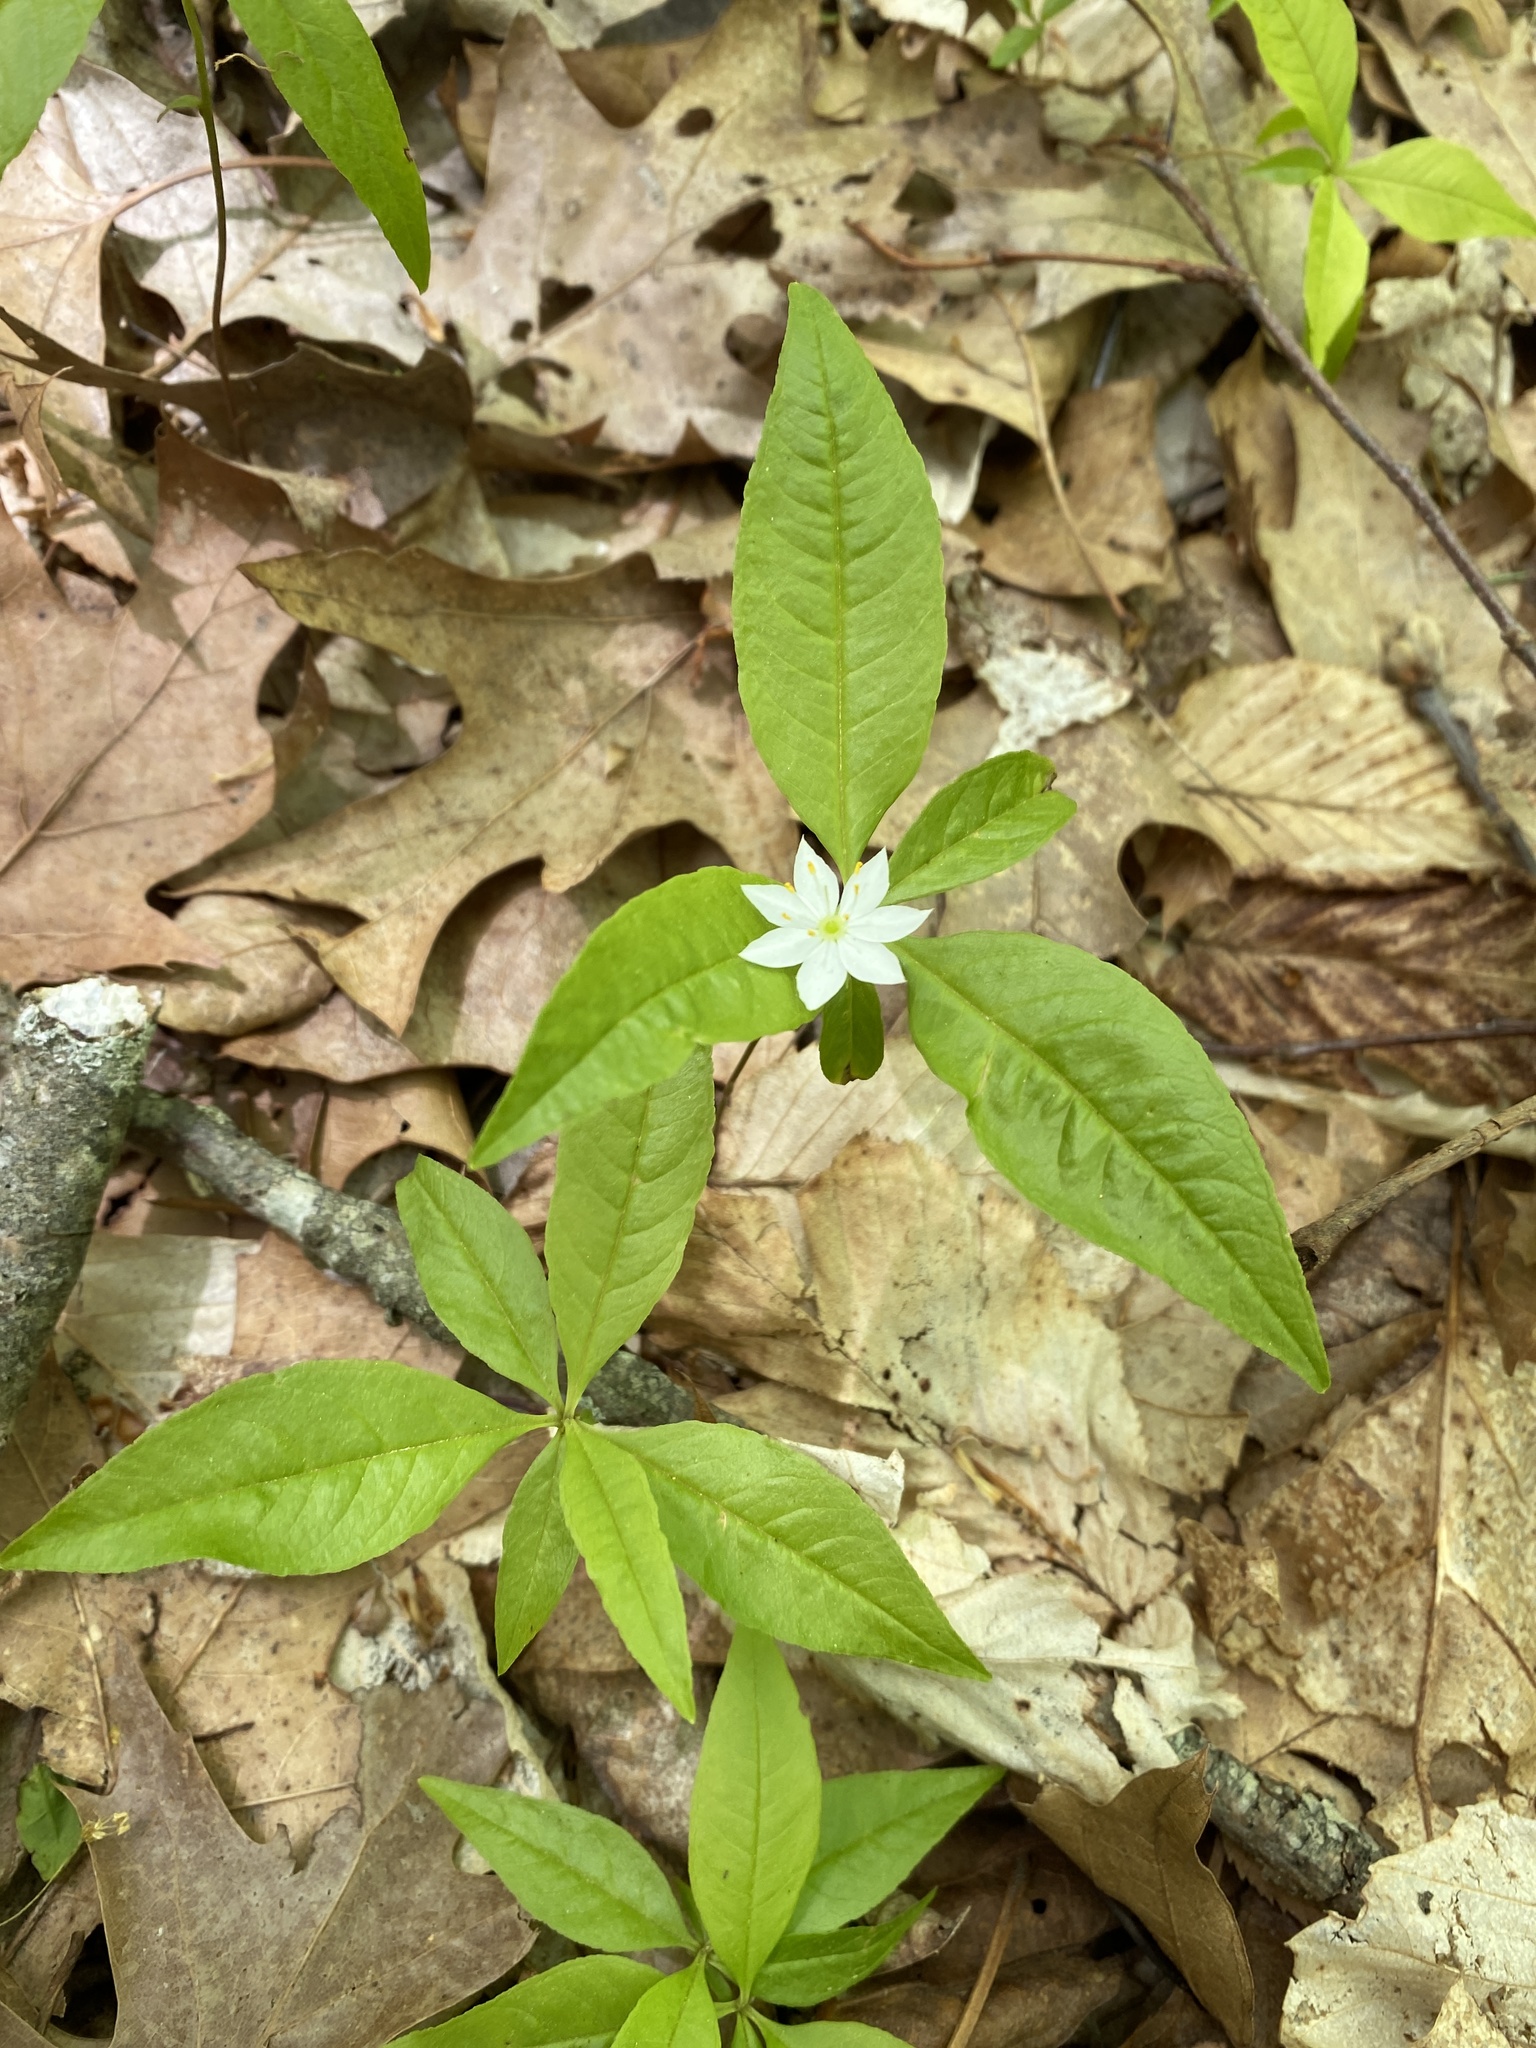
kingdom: Plantae
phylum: Tracheophyta
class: Magnoliopsida
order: Ericales
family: Primulaceae
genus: Lysimachia
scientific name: Lysimachia borealis
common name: American starflower
